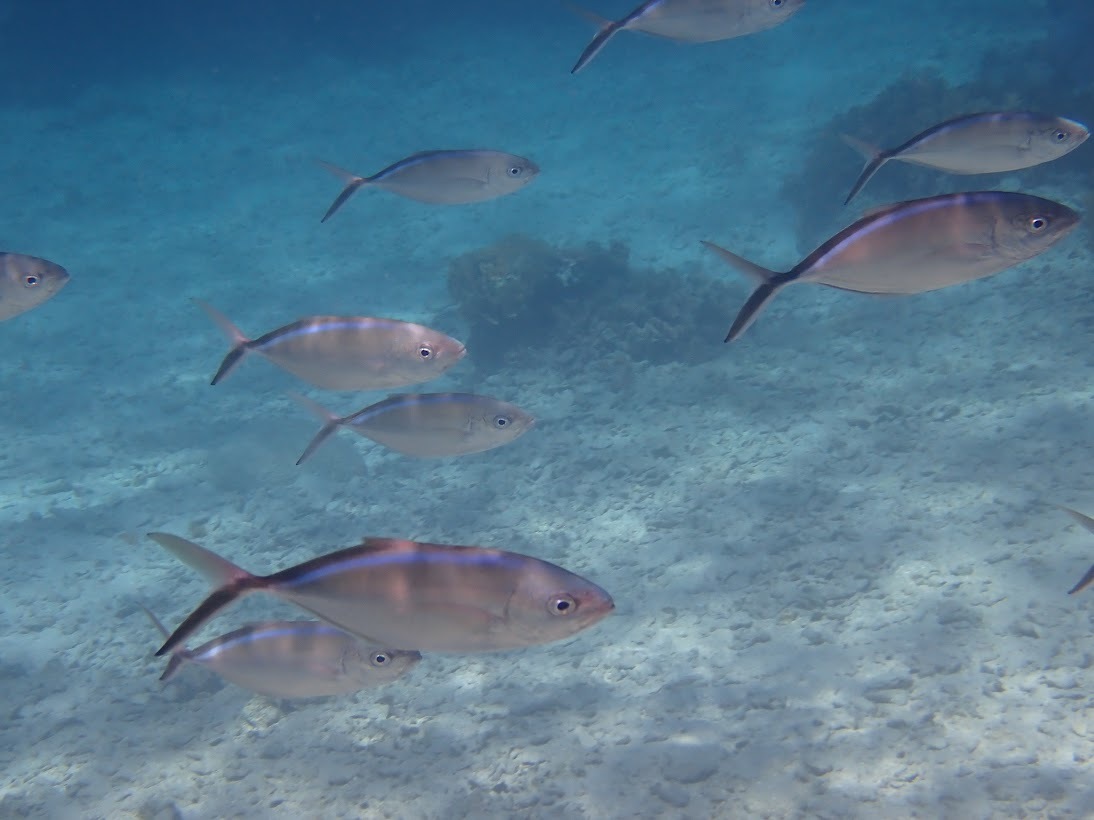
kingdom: Animalia
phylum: Chordata
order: Perciformes
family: Carangidae
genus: Caranx
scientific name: Caranx ruber
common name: Bar jack
